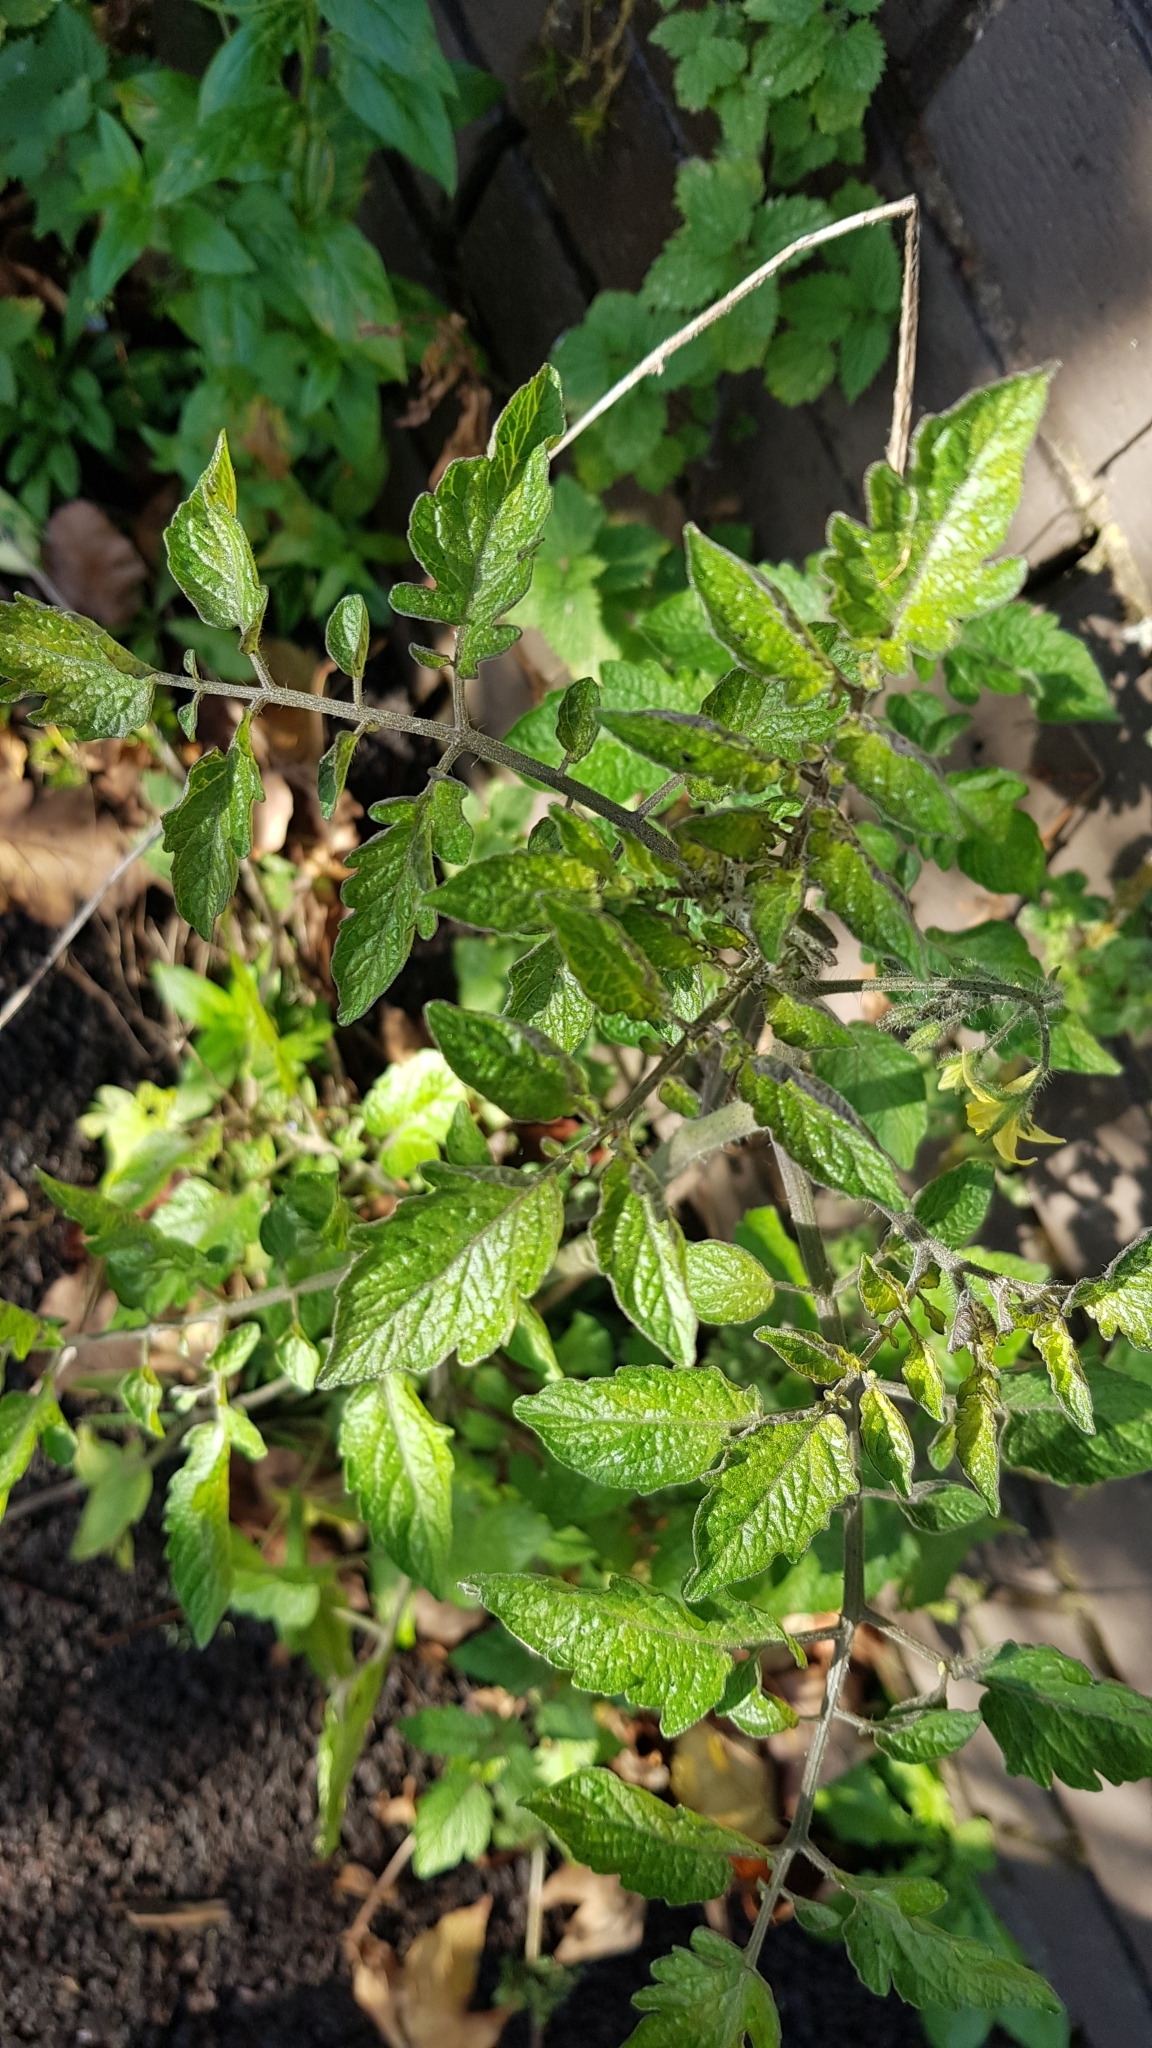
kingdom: Plantae
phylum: Tracheophyta
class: Magnoliopsida
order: Solanales
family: Solanaceae
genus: Solanum
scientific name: Solanum lycopersicum
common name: Garden tomato
